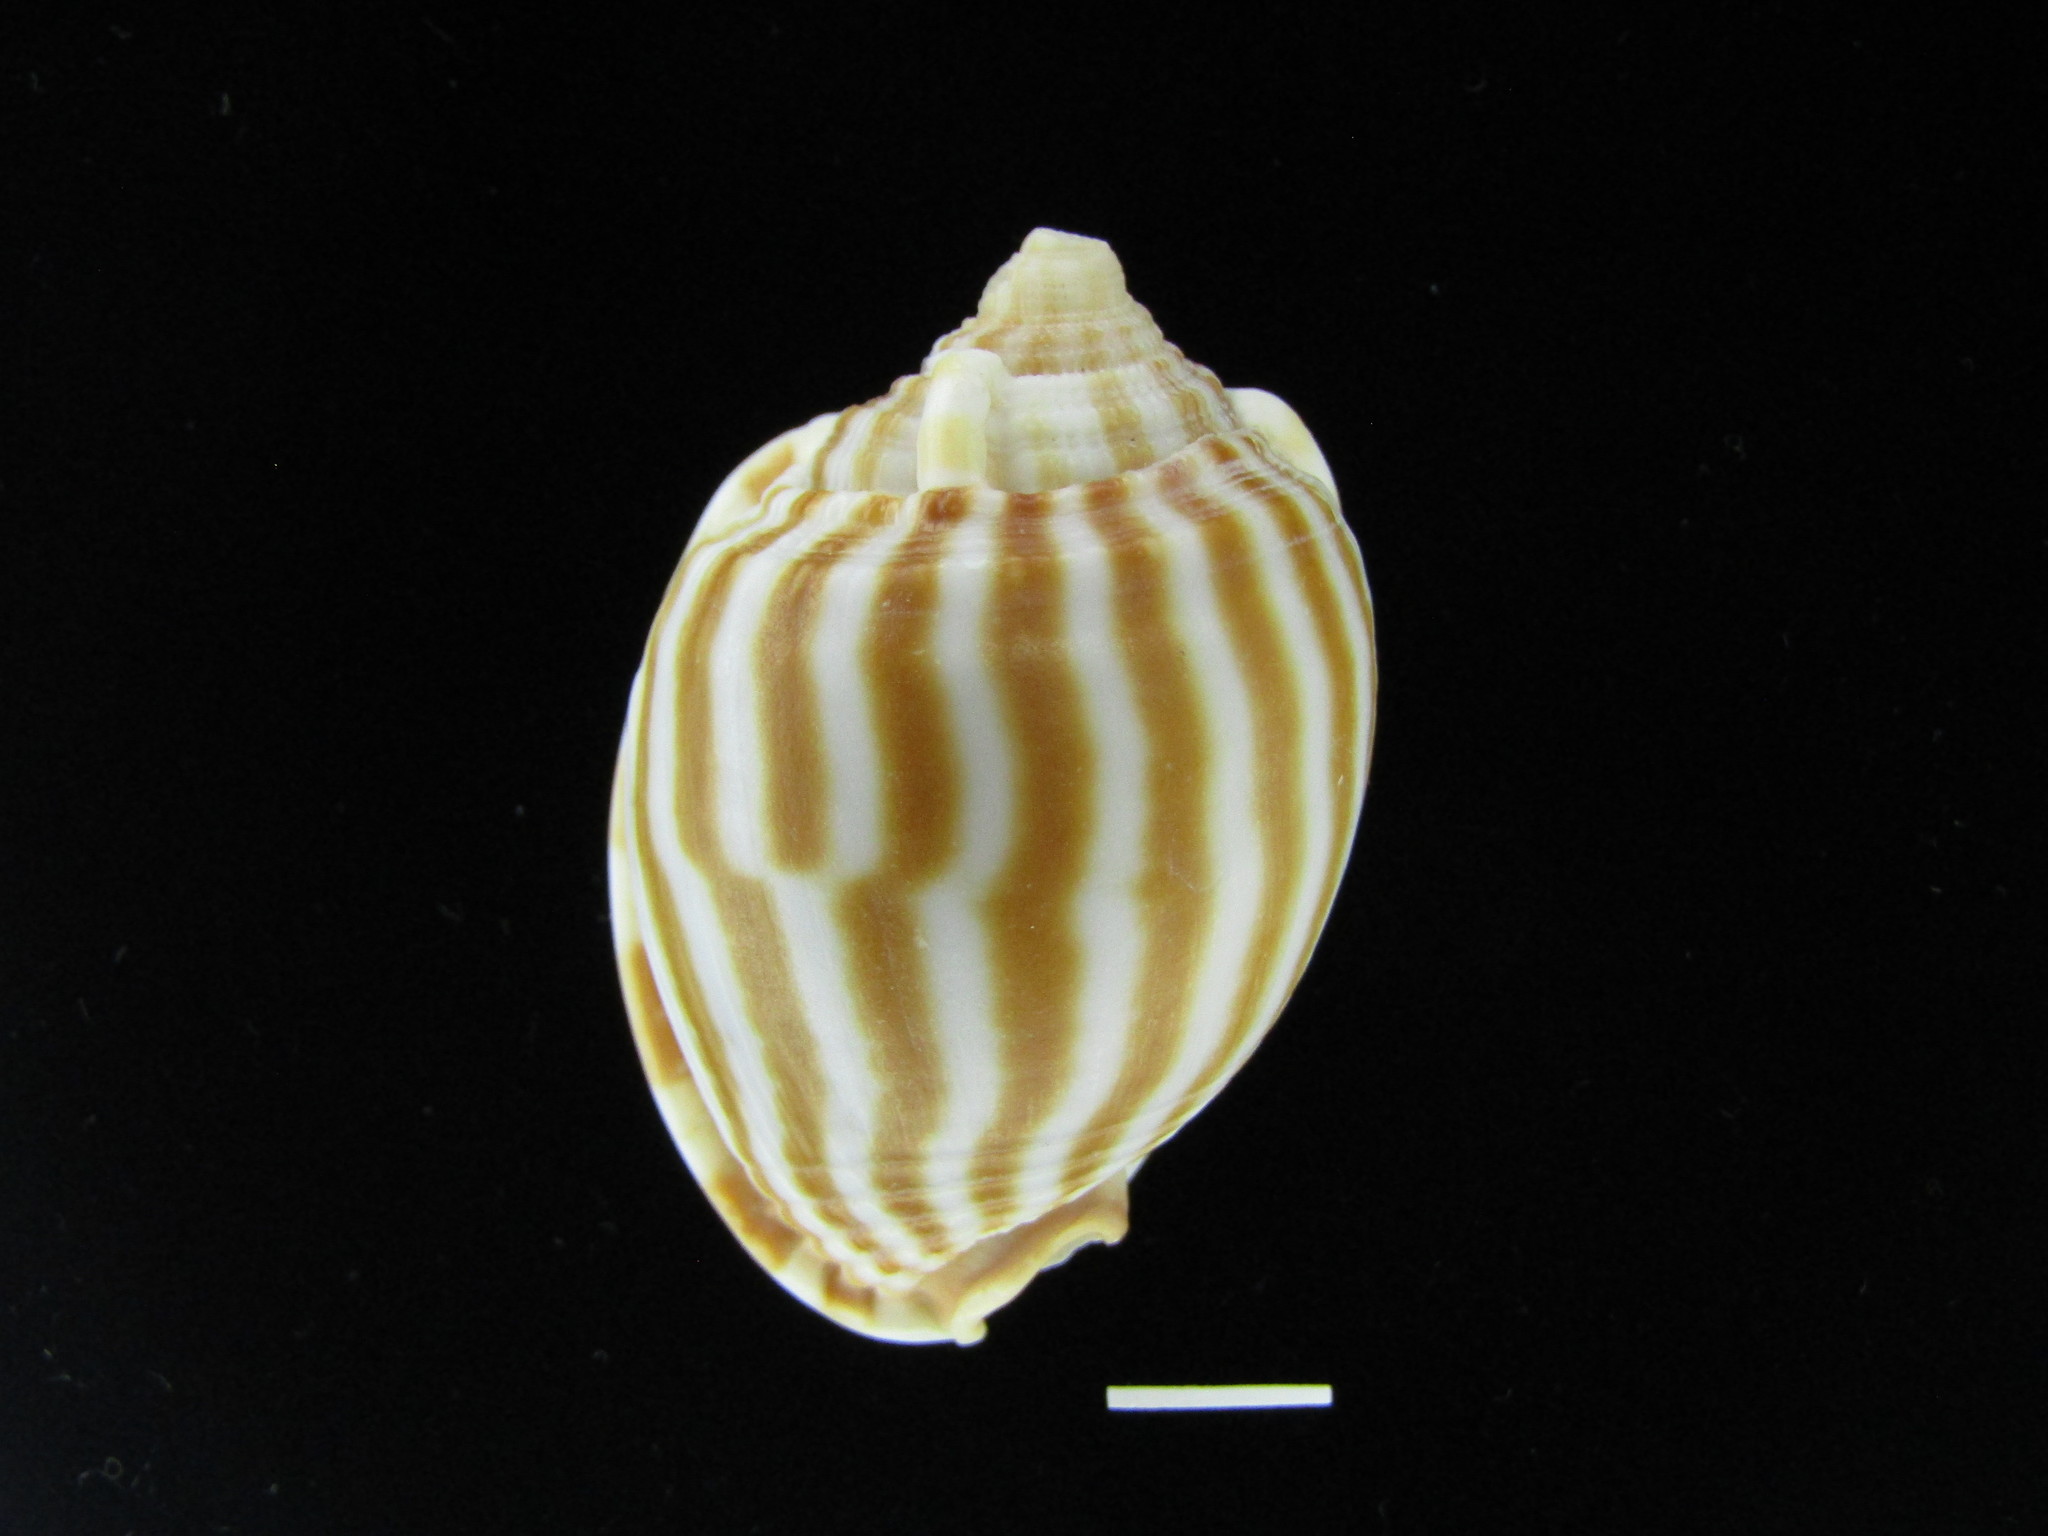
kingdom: Animalia
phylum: Mollusca
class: Gastropoda
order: Littorinimorpha
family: Cassidae
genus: Phalium
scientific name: Phalium flammiferum
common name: Flammed bonnet
